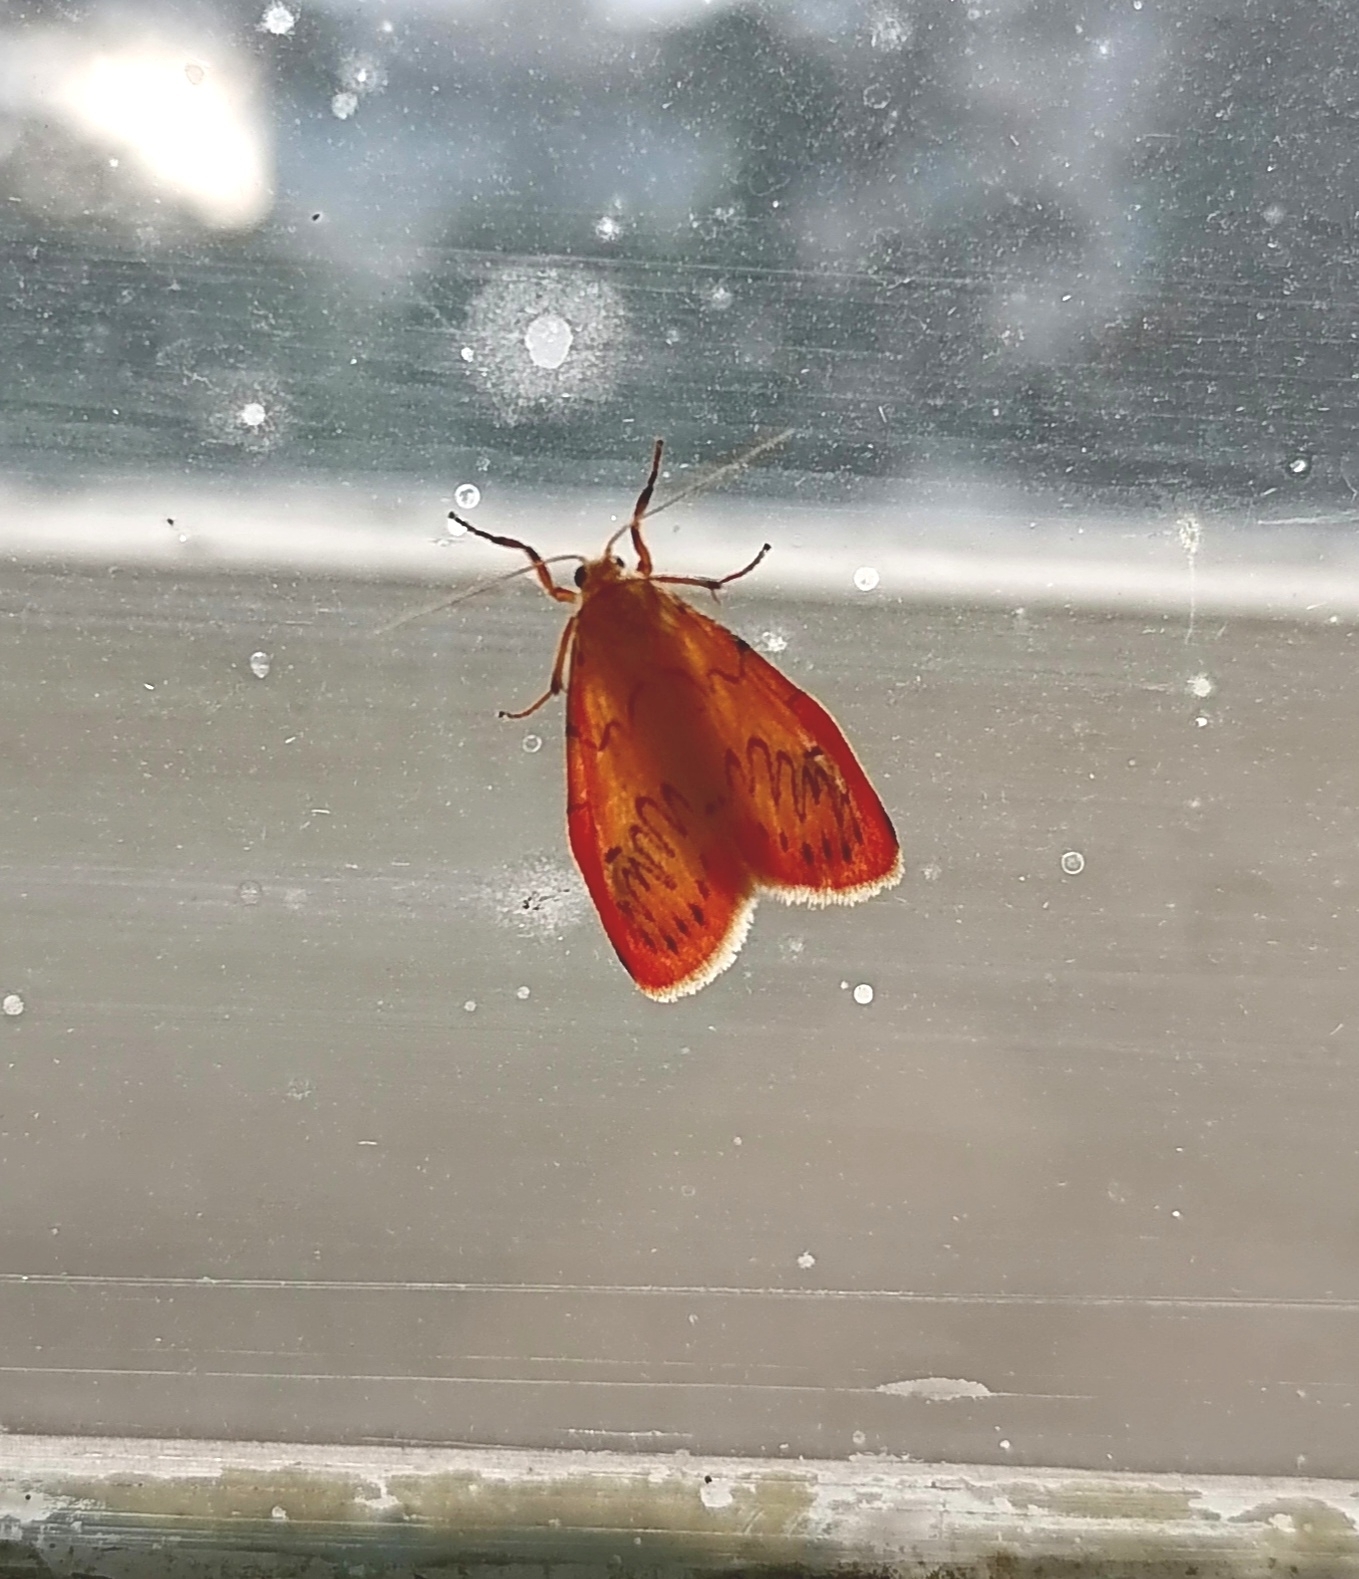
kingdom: Animalia
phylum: Arthropoda
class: Insecta
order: Lepidoptera
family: Erebidae
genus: Miltochrista
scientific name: Miltochrista miniata
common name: Rosy footman
